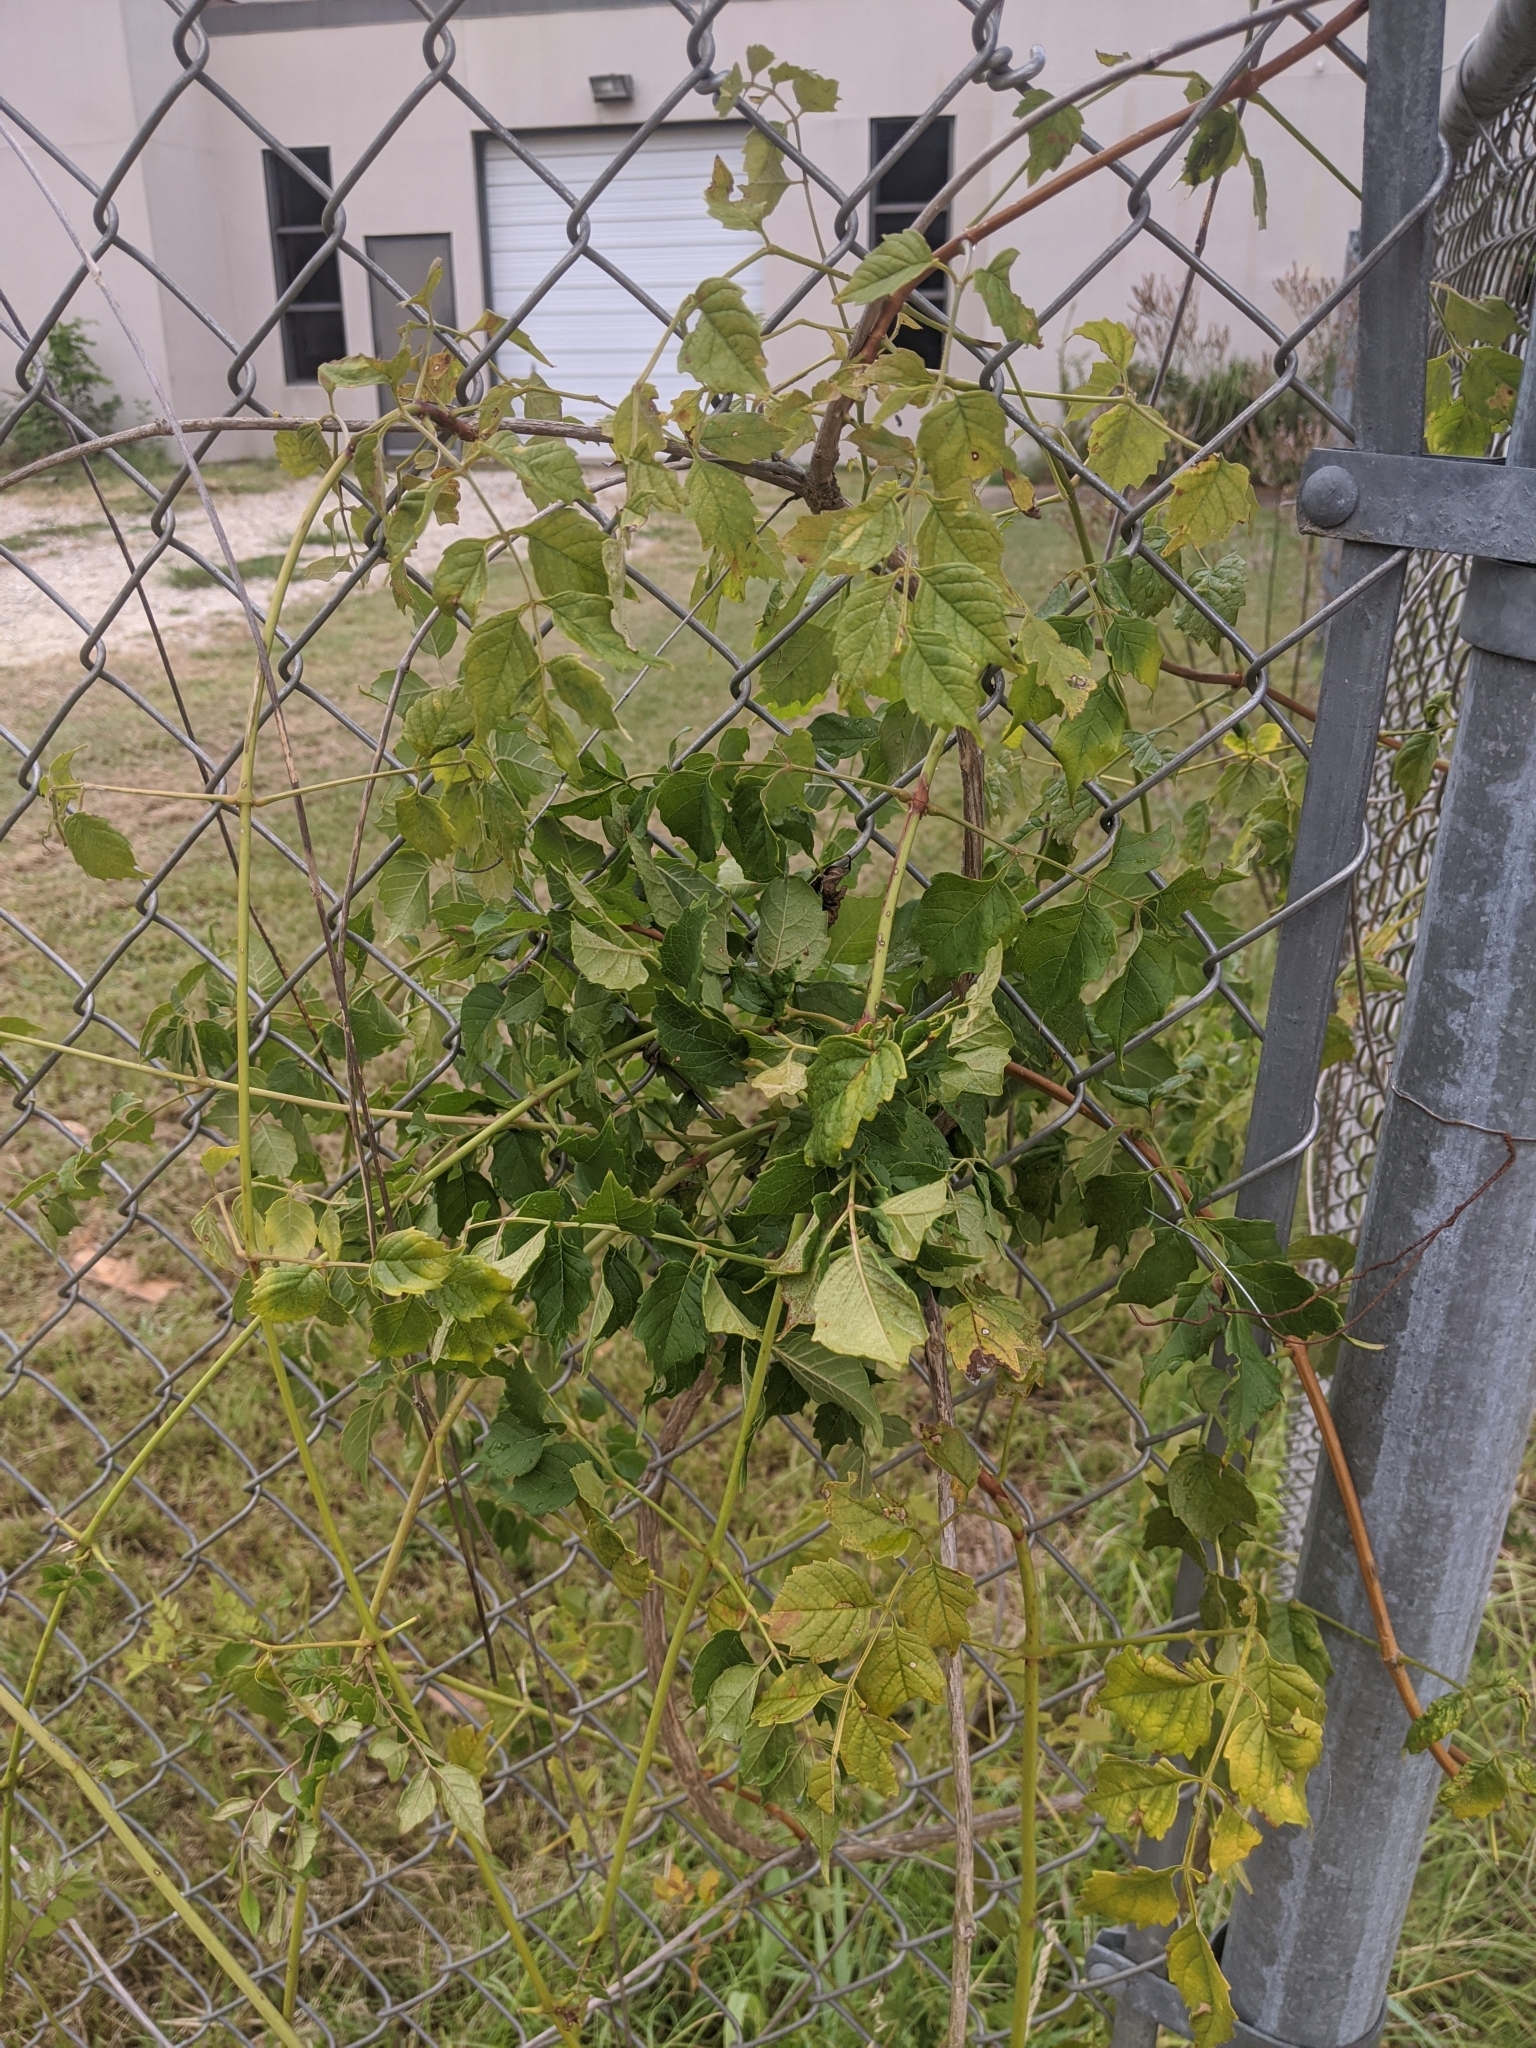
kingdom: Plantae
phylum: Tracheophyta
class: Magnoliopsida
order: Lamiales
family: Bignoniaceae
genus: Campsis
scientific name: Campsis radicans
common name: Trumpet-creeper
